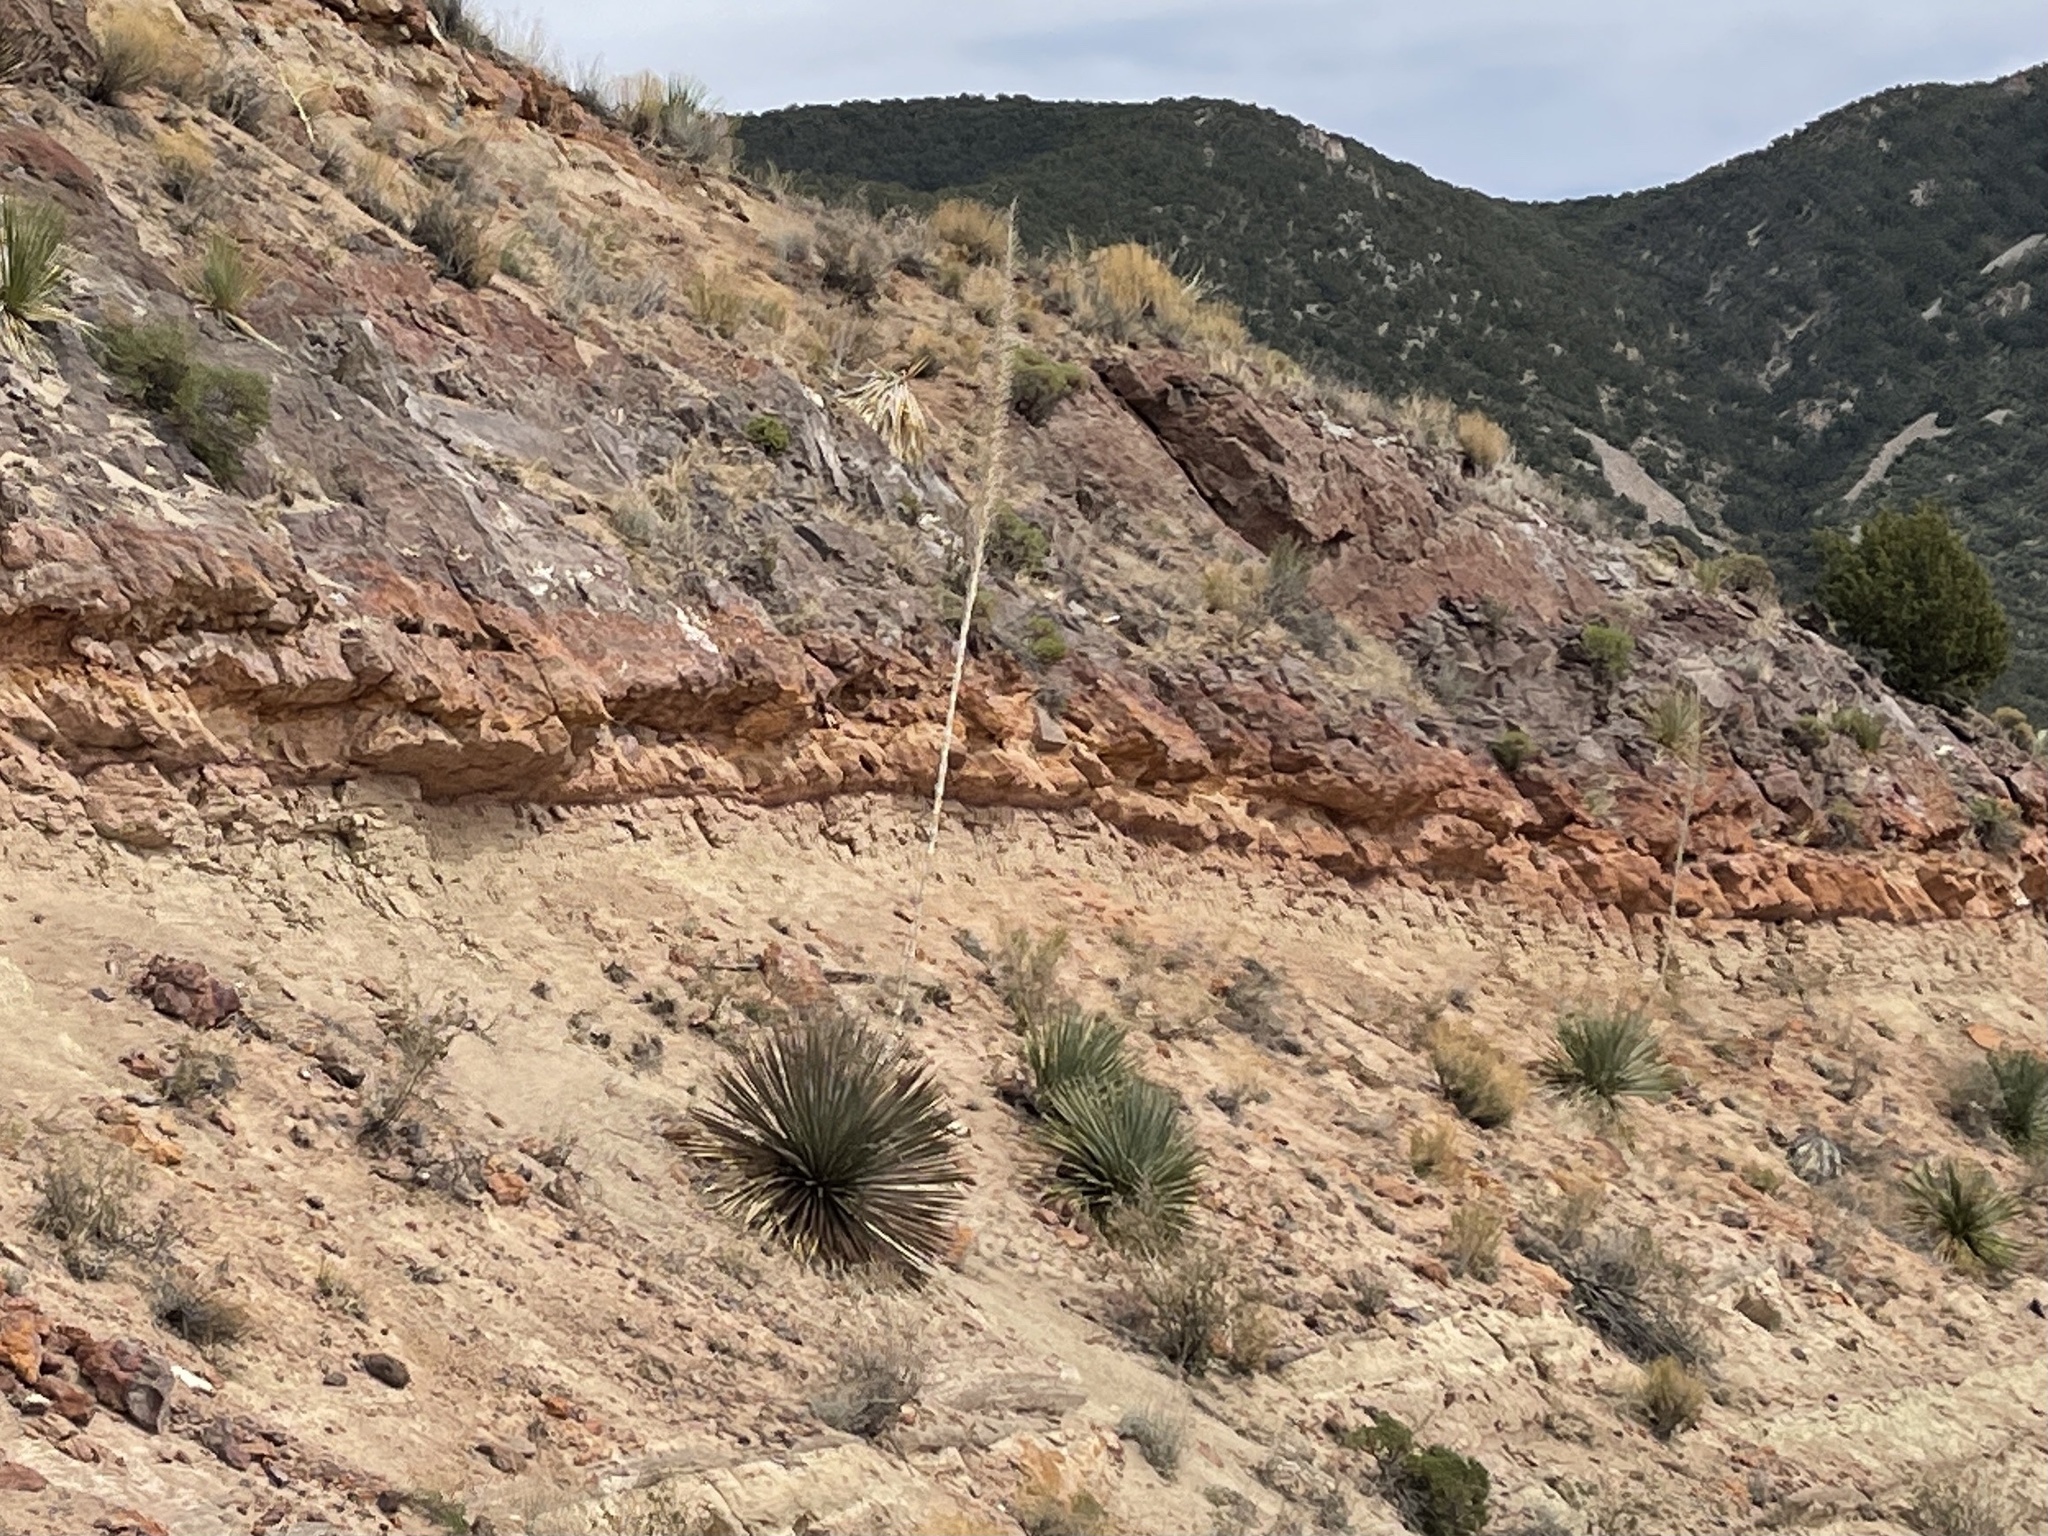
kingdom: Plantae
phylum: Tracheophyta
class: Liliopsida
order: Asparagales
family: Asparagaceae
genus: Dasylirion
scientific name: Dasylirion wheeleri
